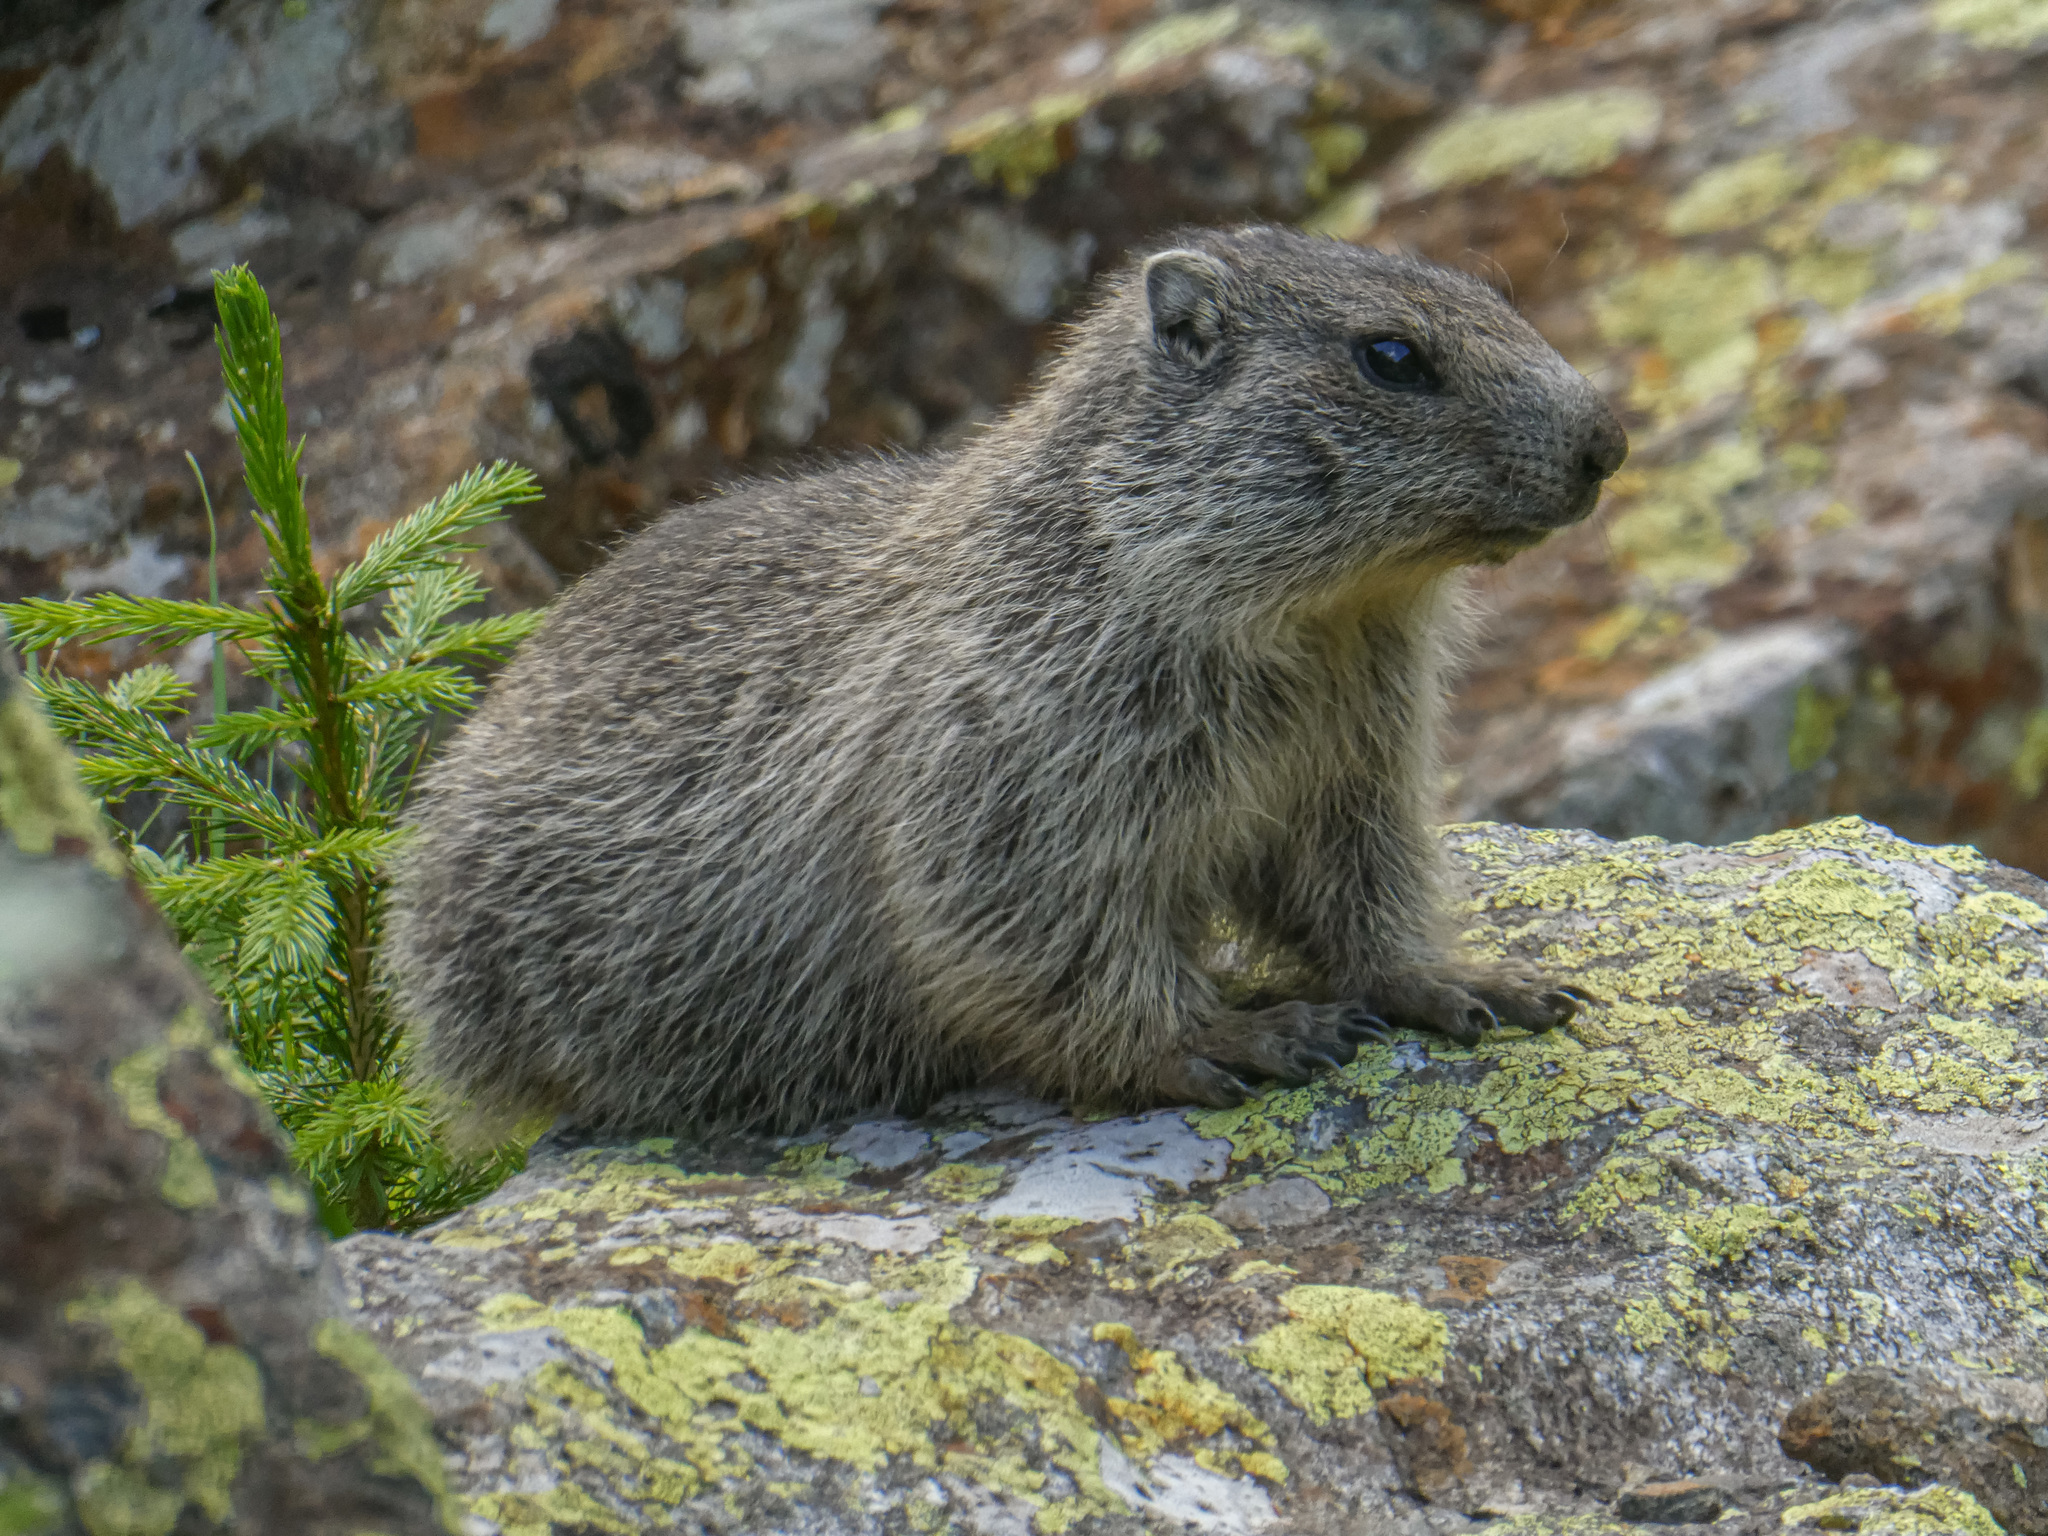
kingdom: Animalia
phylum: Chordata
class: Mammalia
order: Rodentia
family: Sciuridae
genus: Marmota
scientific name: Marmota marmota
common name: Alpine marmot
